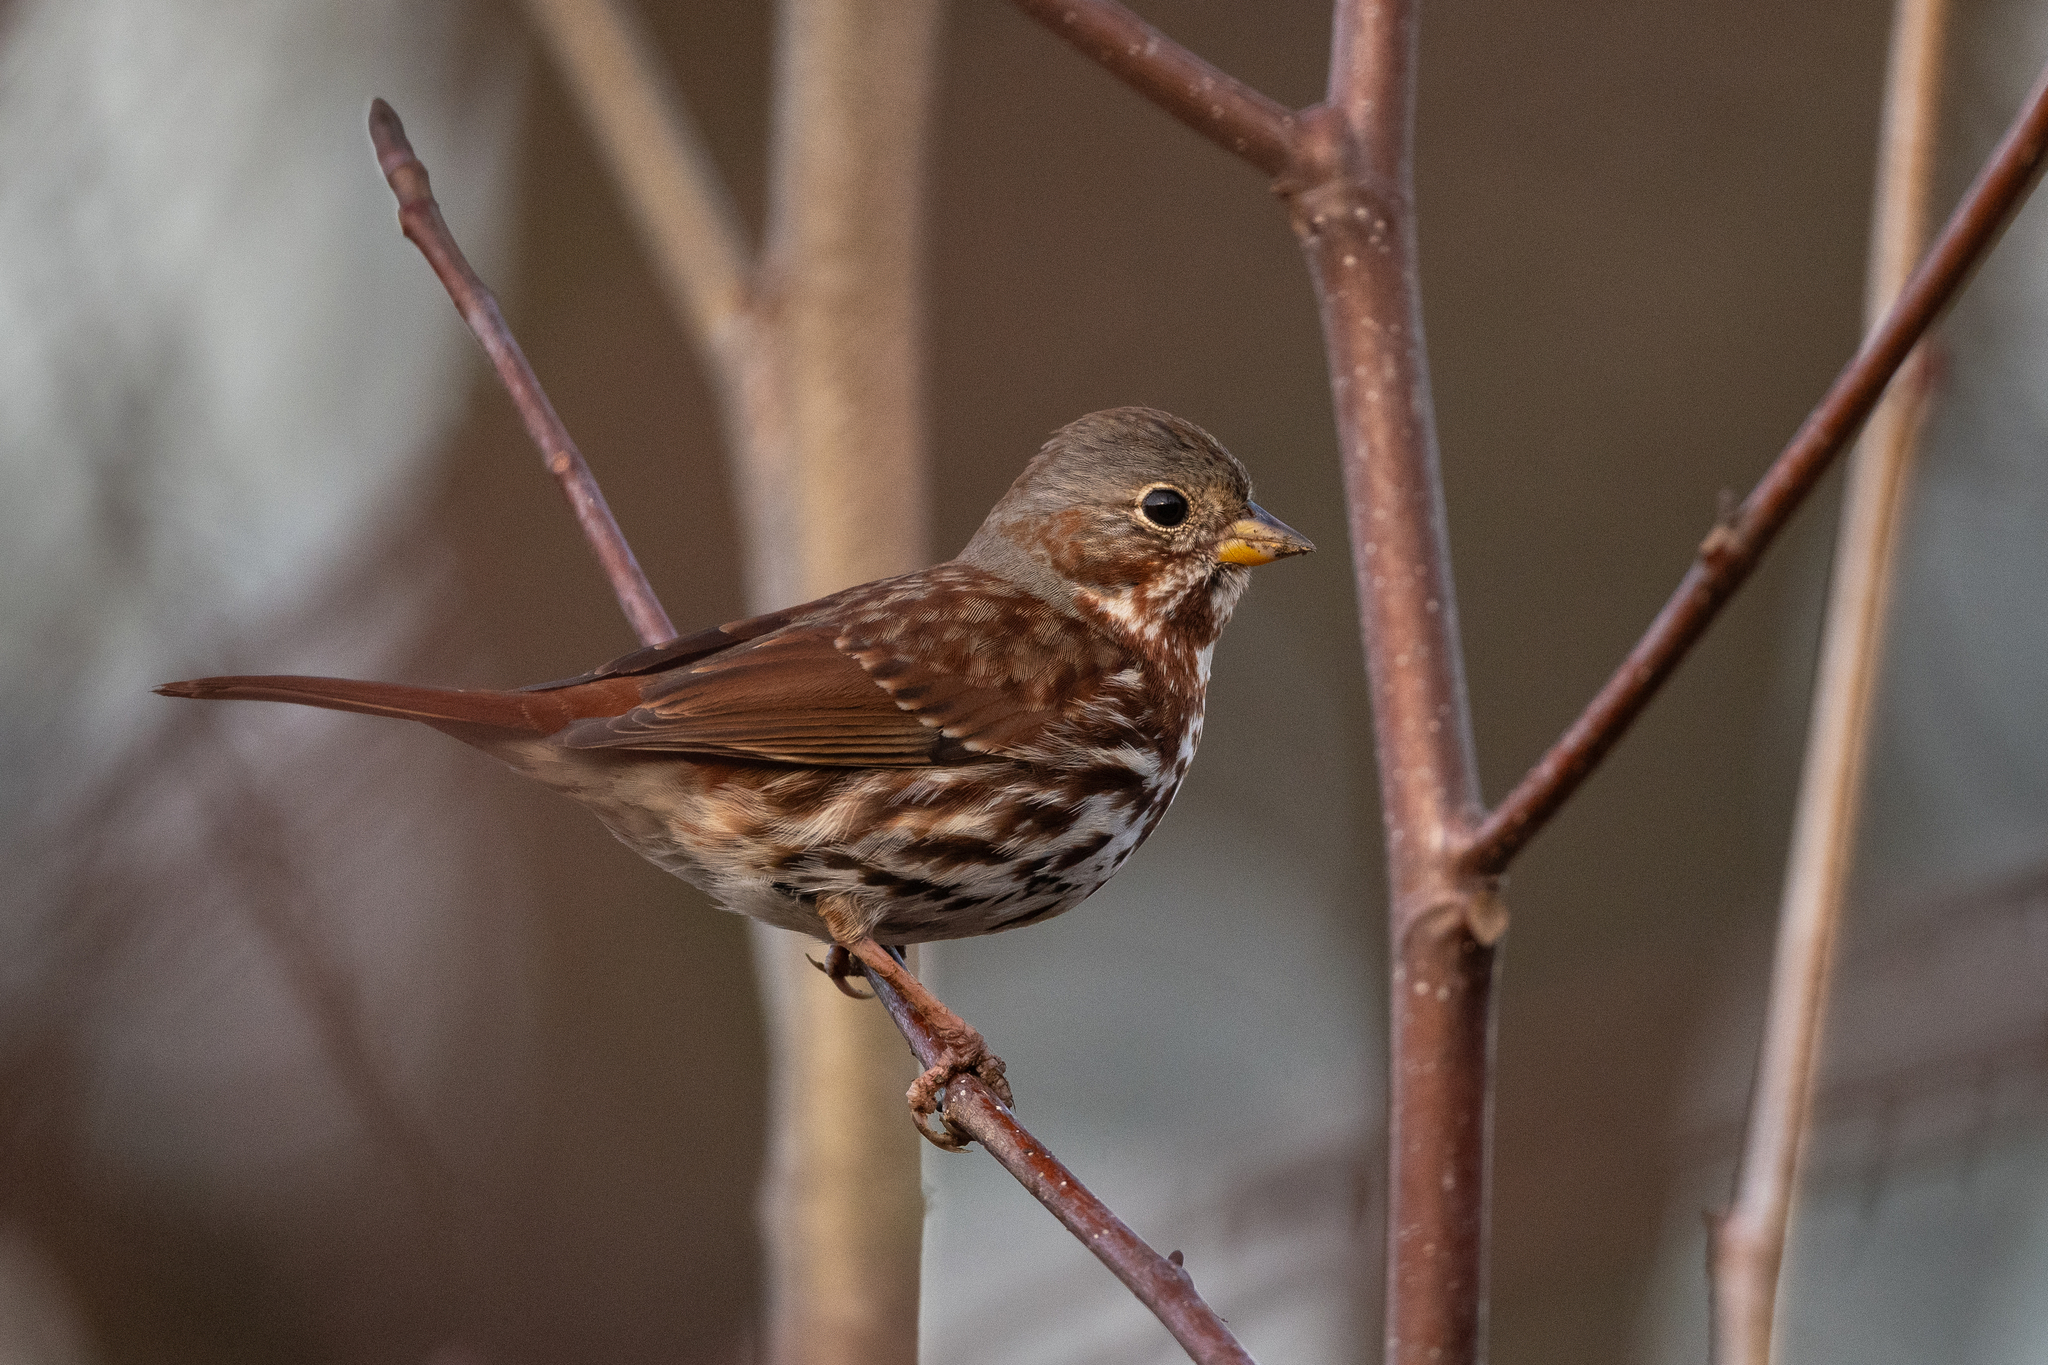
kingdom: Animalia
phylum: Chordata
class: Aves
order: Passeriformes
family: Passerellidae
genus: Passerella
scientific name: Passerella iliaca
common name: Fox sparrow
